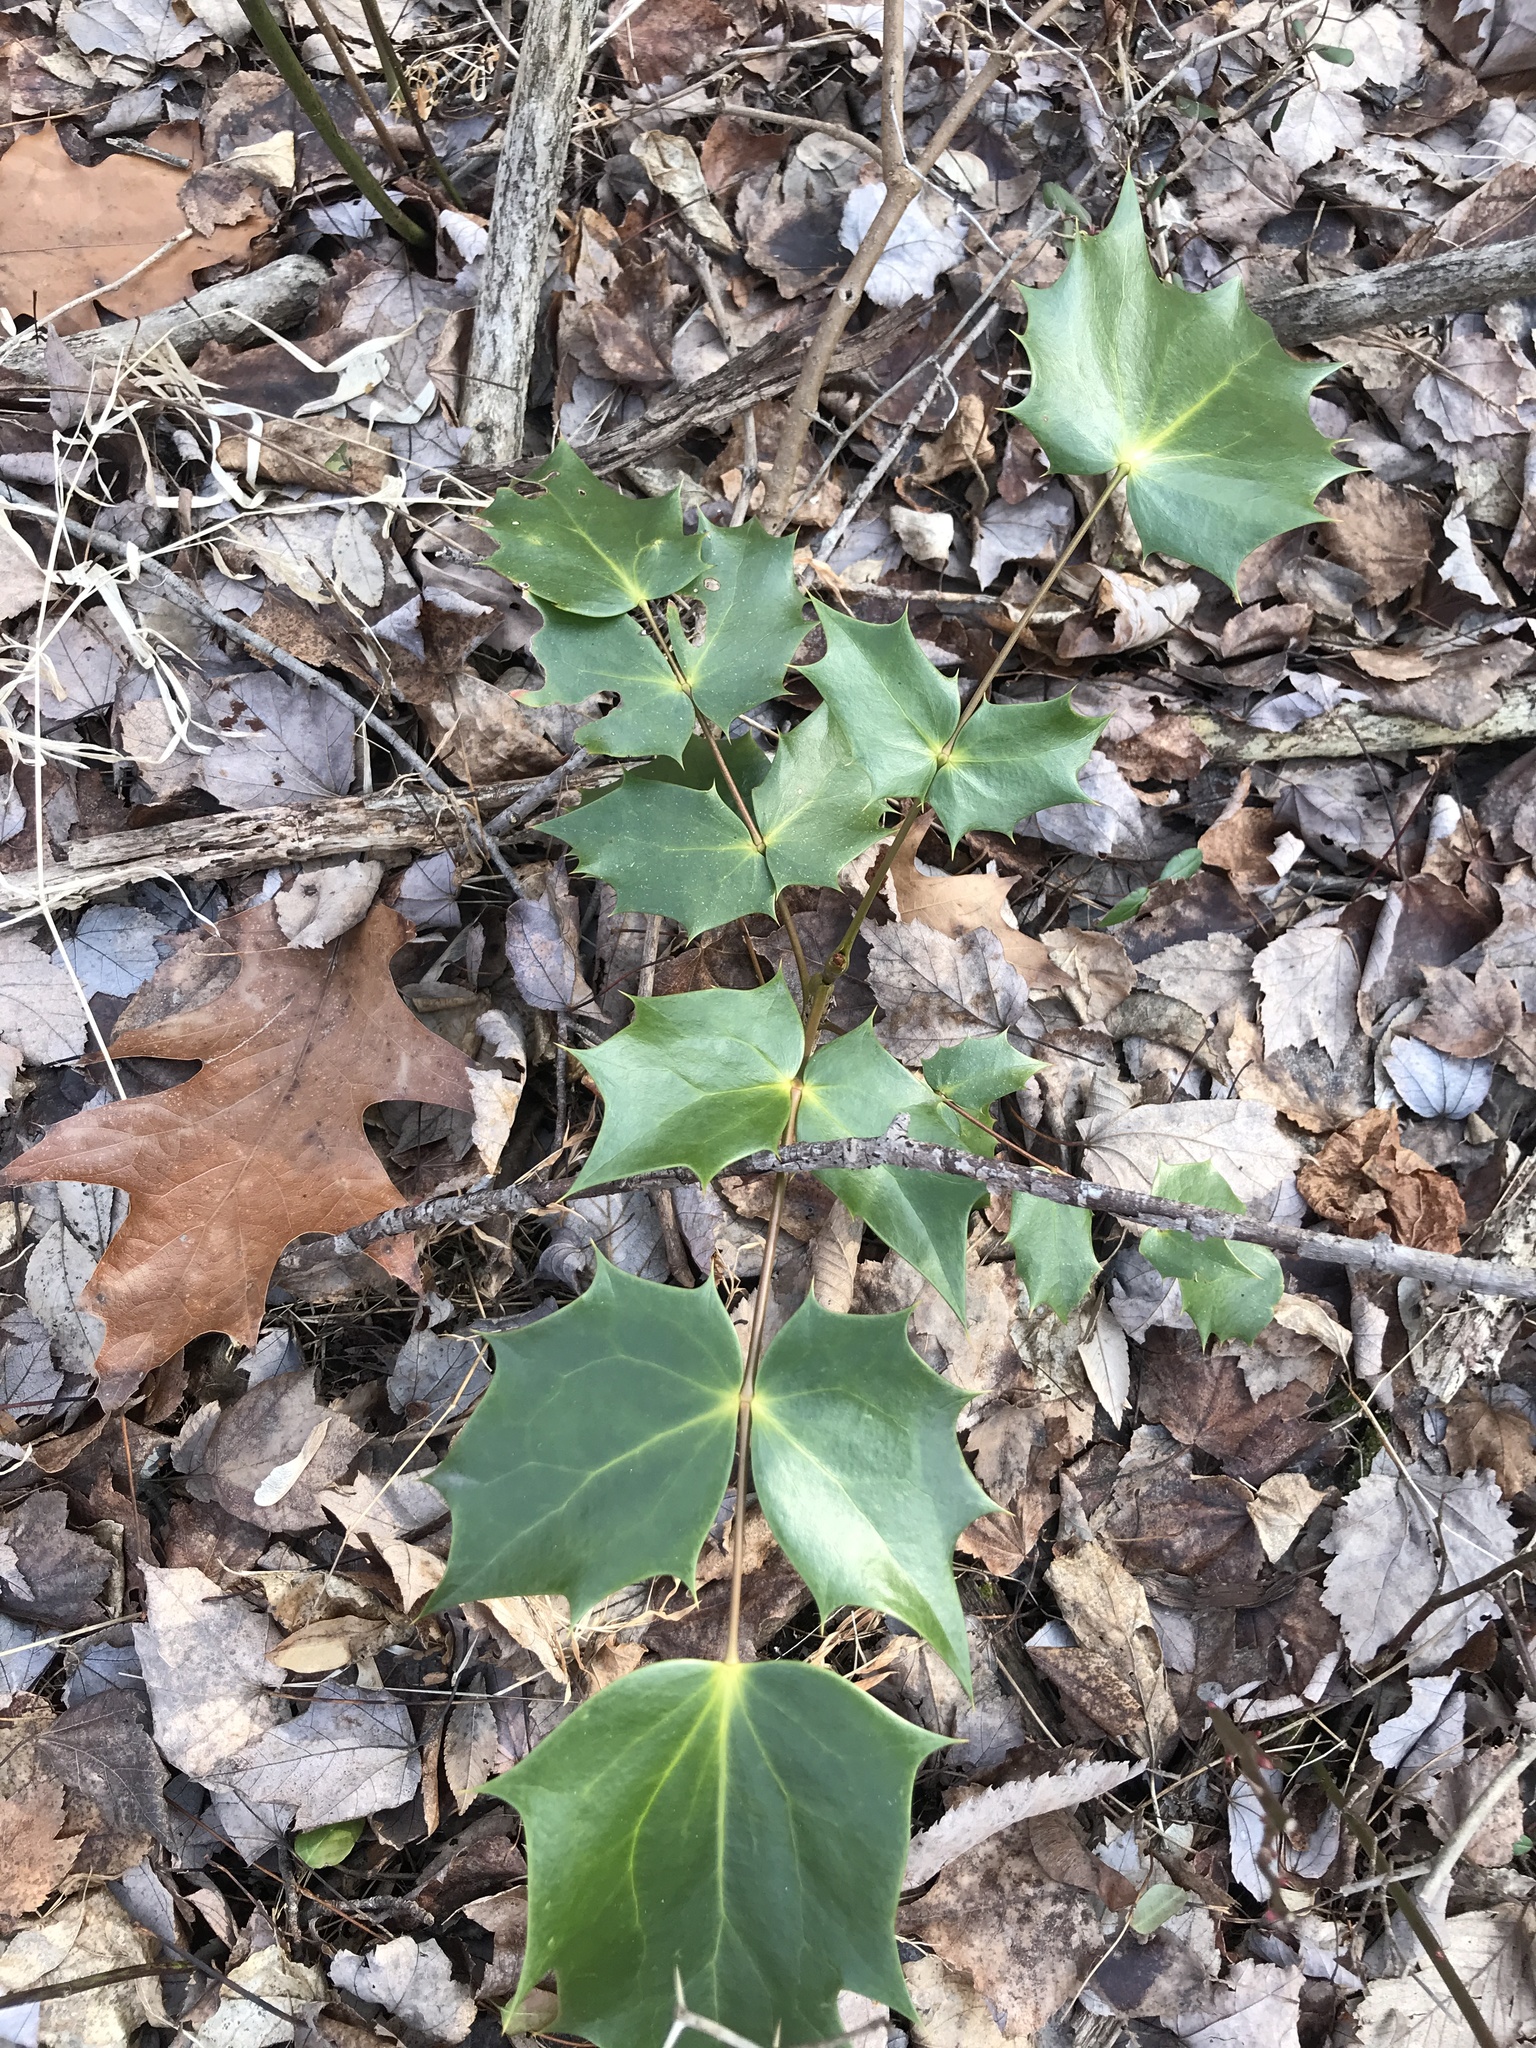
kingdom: Plantae
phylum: Tracheophyta
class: Magnoliopsida
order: Ranunculales
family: Berberidaceae
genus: Mahonia
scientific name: Mahonia bealei
